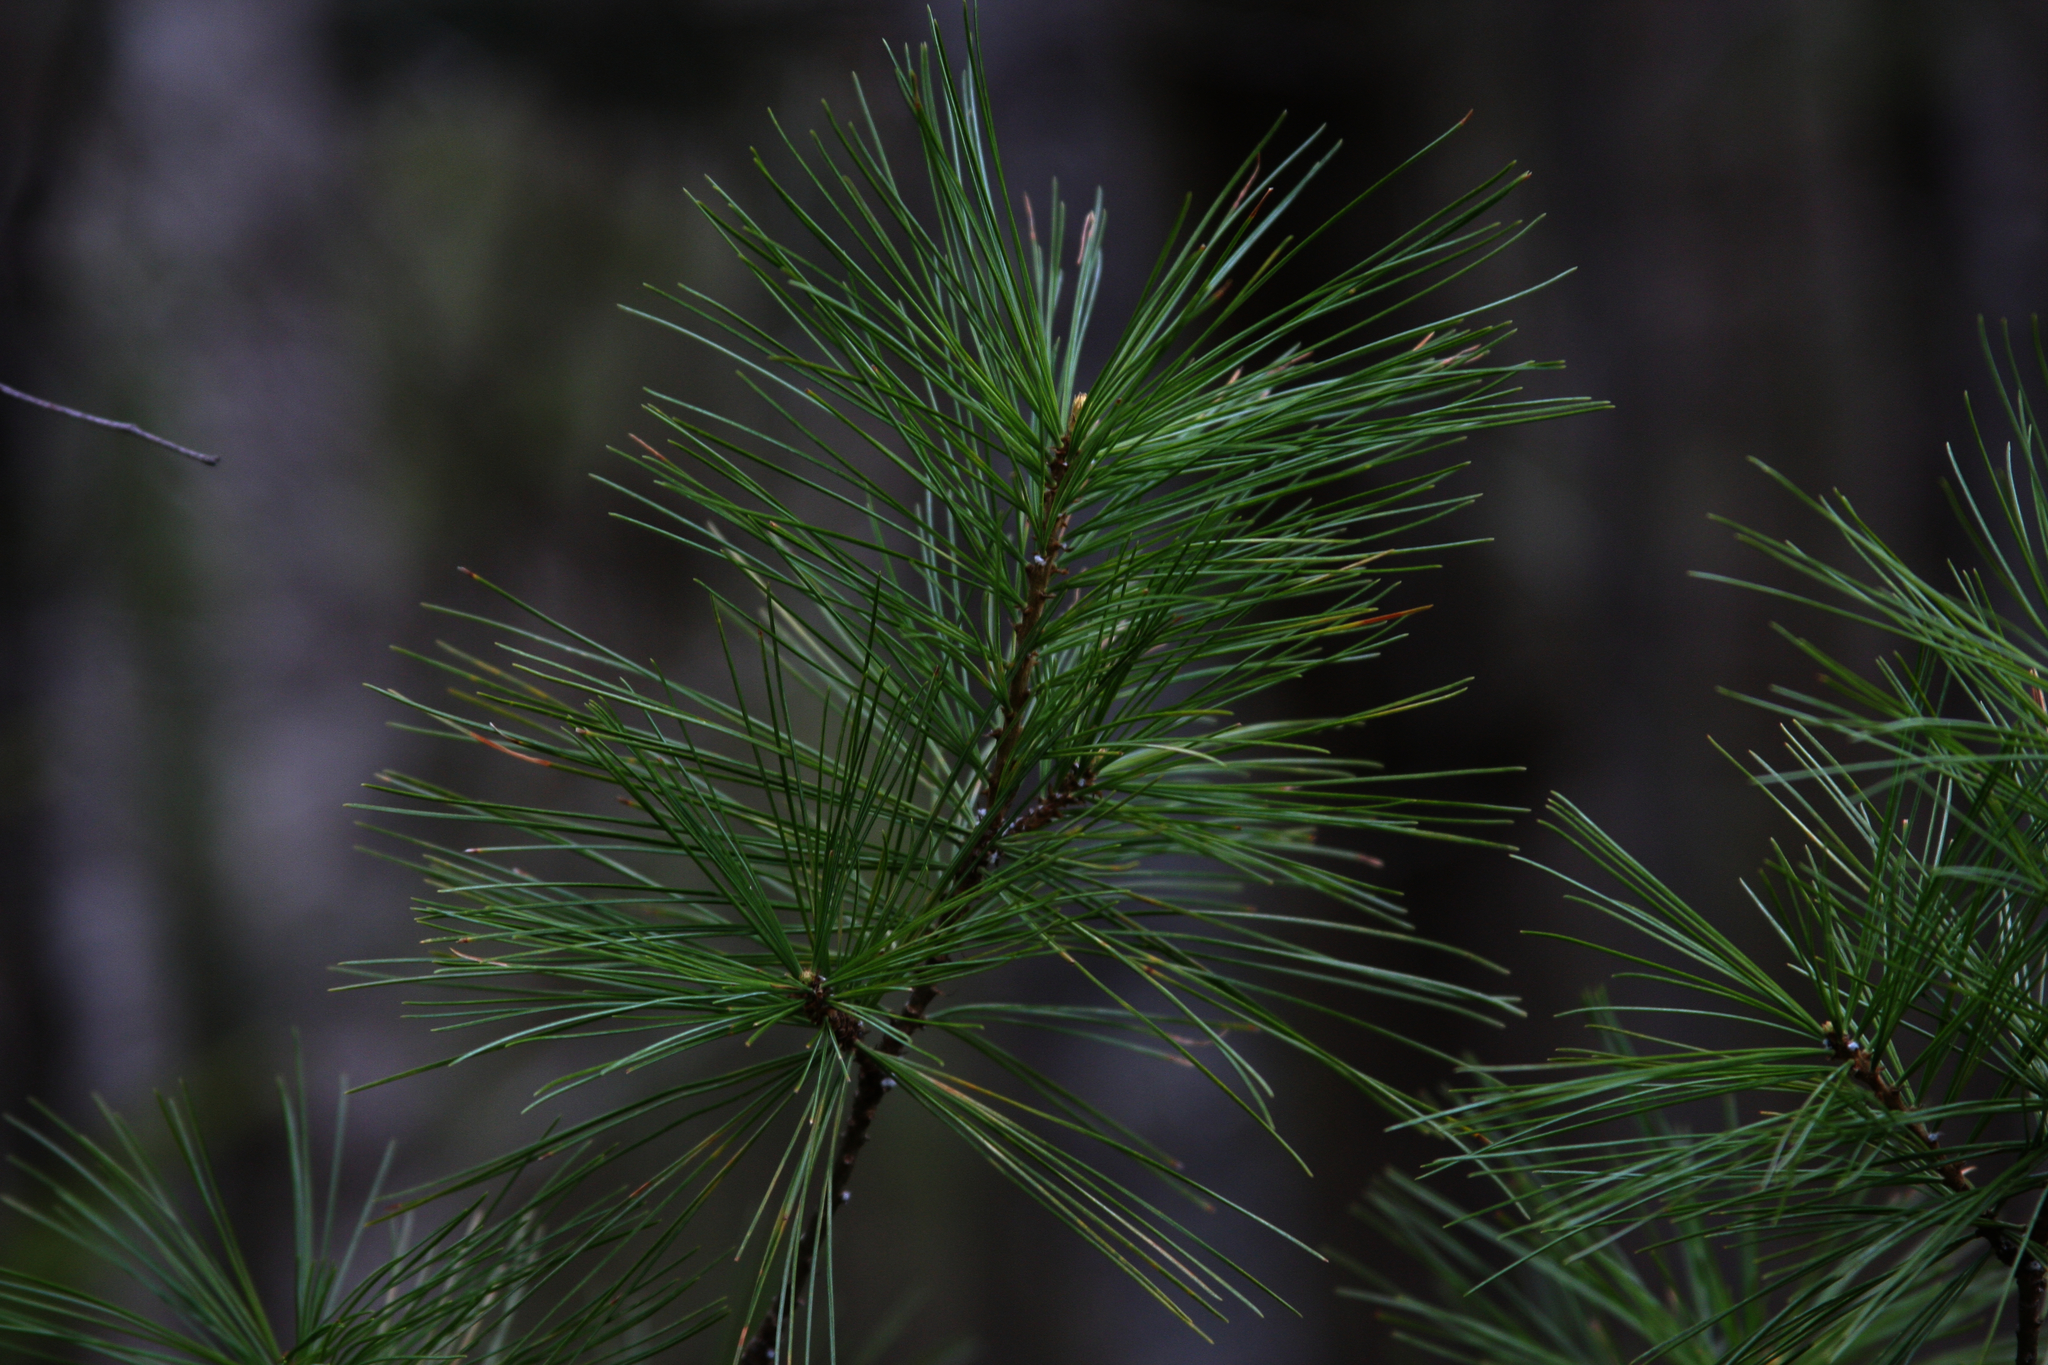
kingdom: Plantae
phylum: Tracheophyta
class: Pinopsida
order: Pinales
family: Pinaceae
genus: Pinus
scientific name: Pinus strobus
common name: Weymouth pine
